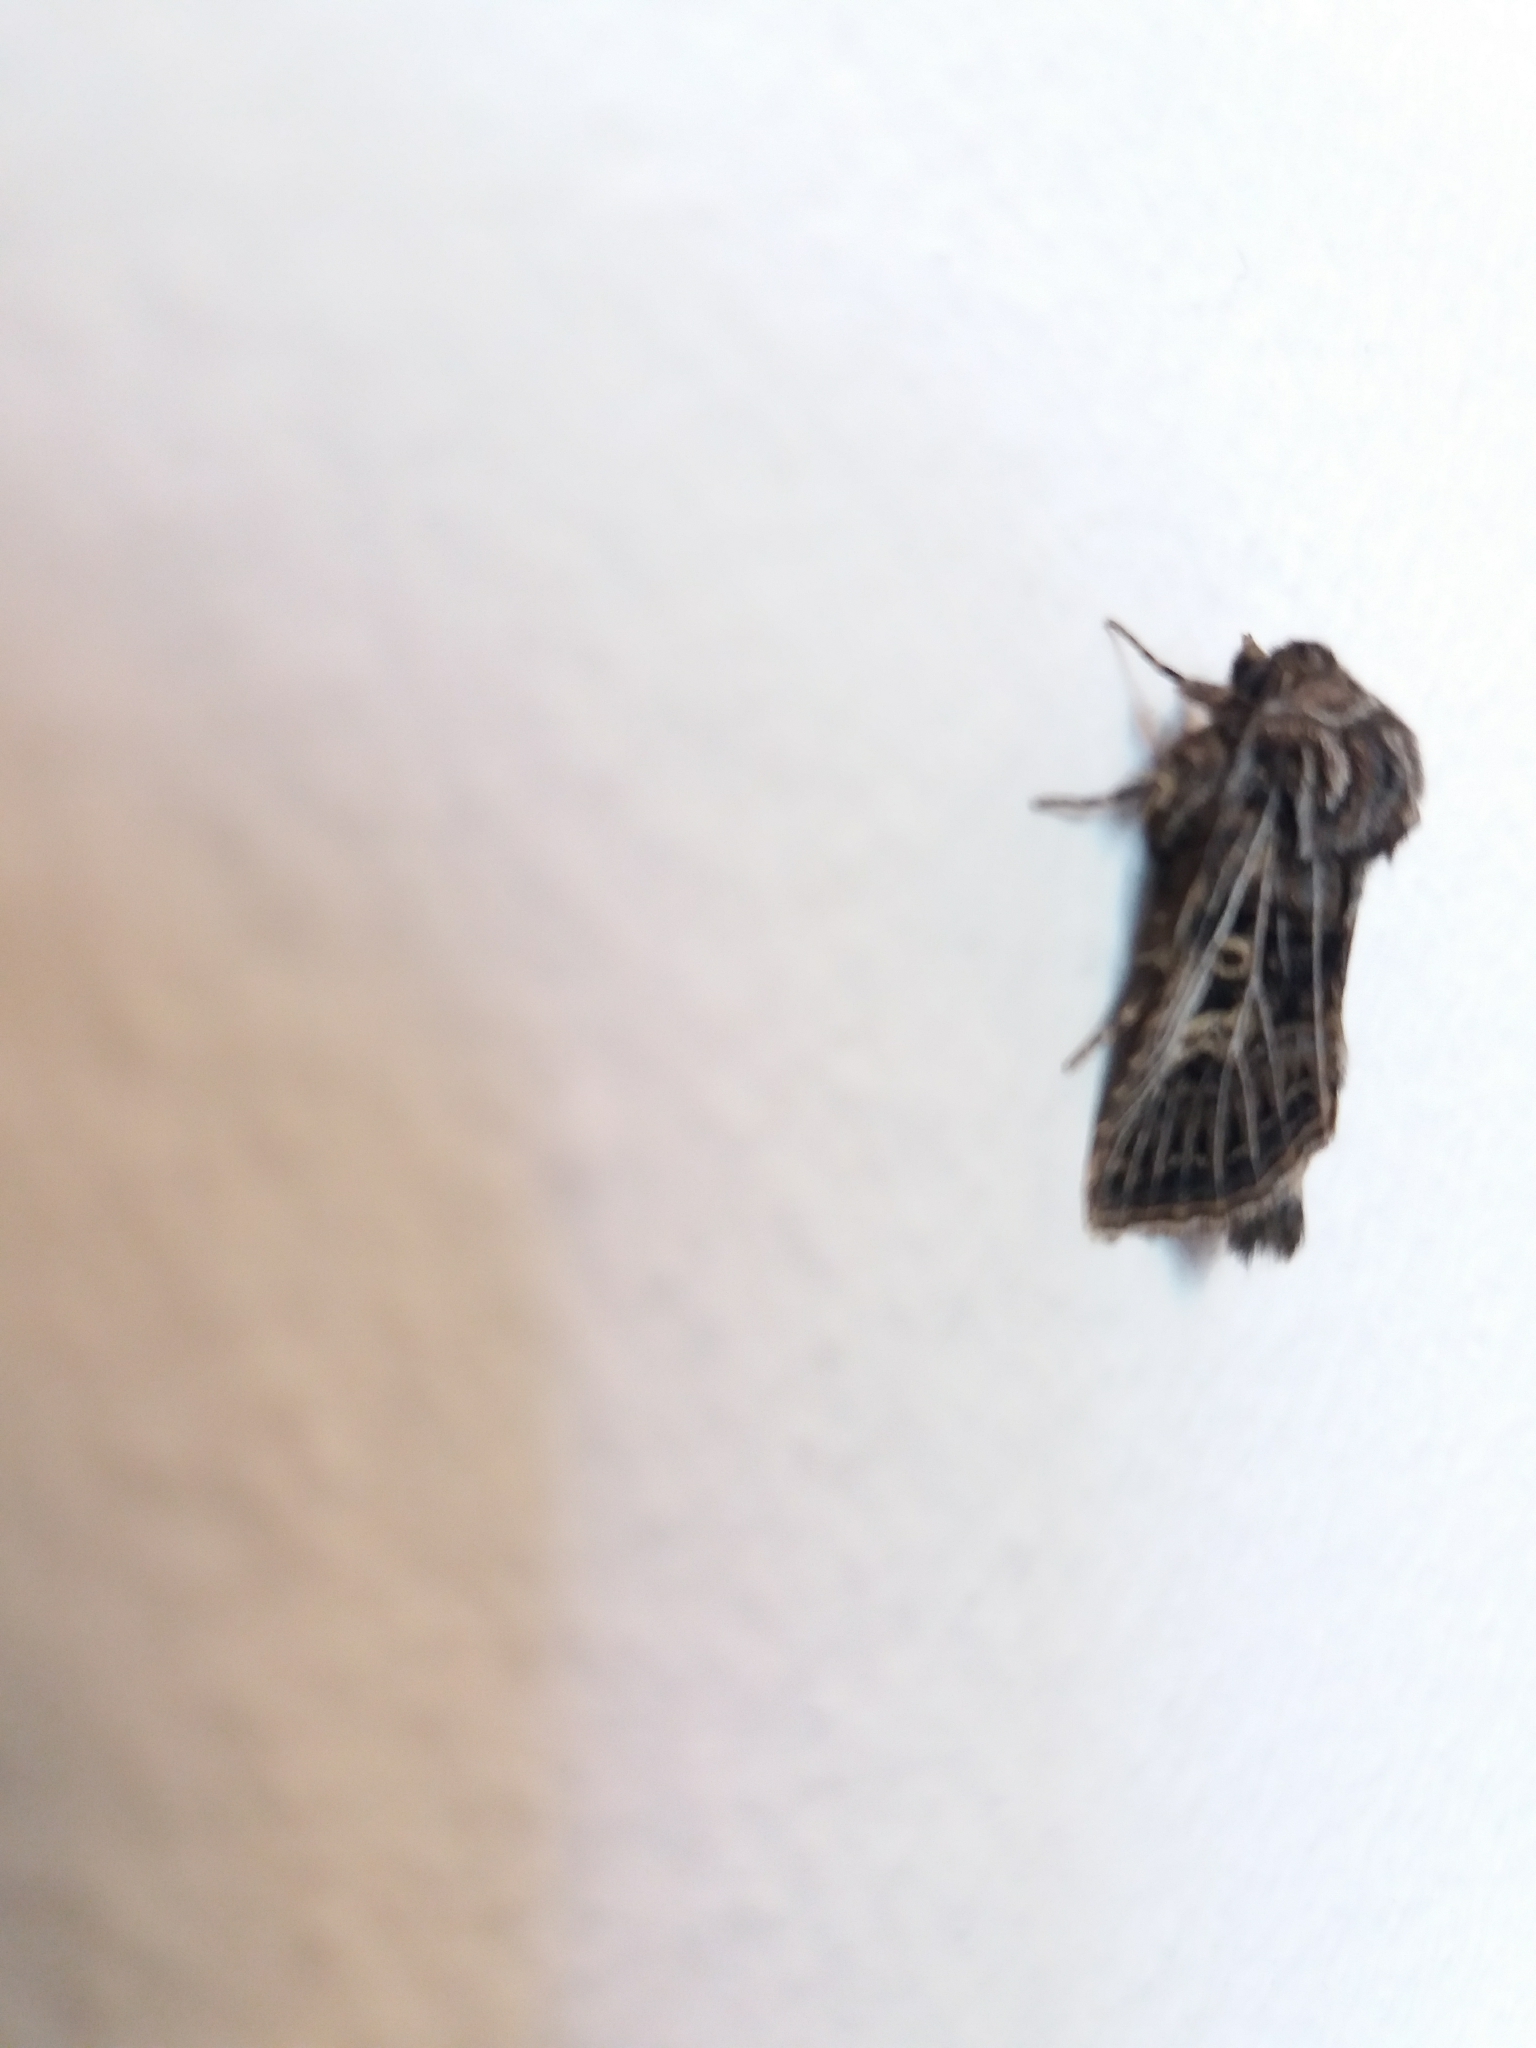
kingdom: Animalia
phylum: Arthropoda
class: Insecta
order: Lepidoptera
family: Noctuidae
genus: Tholera
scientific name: Tholera decimalis
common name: Feathered gothic
